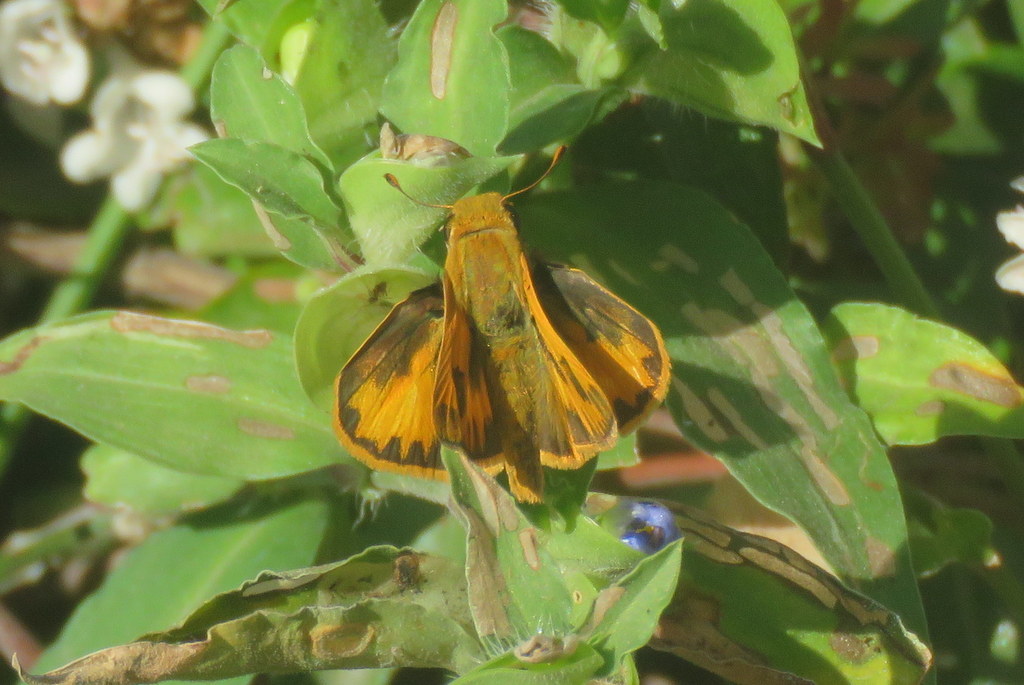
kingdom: Animalia
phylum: Arthropoda
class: Insecta
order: Lepidoptera
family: Hesperiidae
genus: Hylephila
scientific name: Hylephila phyleus
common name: Fiery skipper
